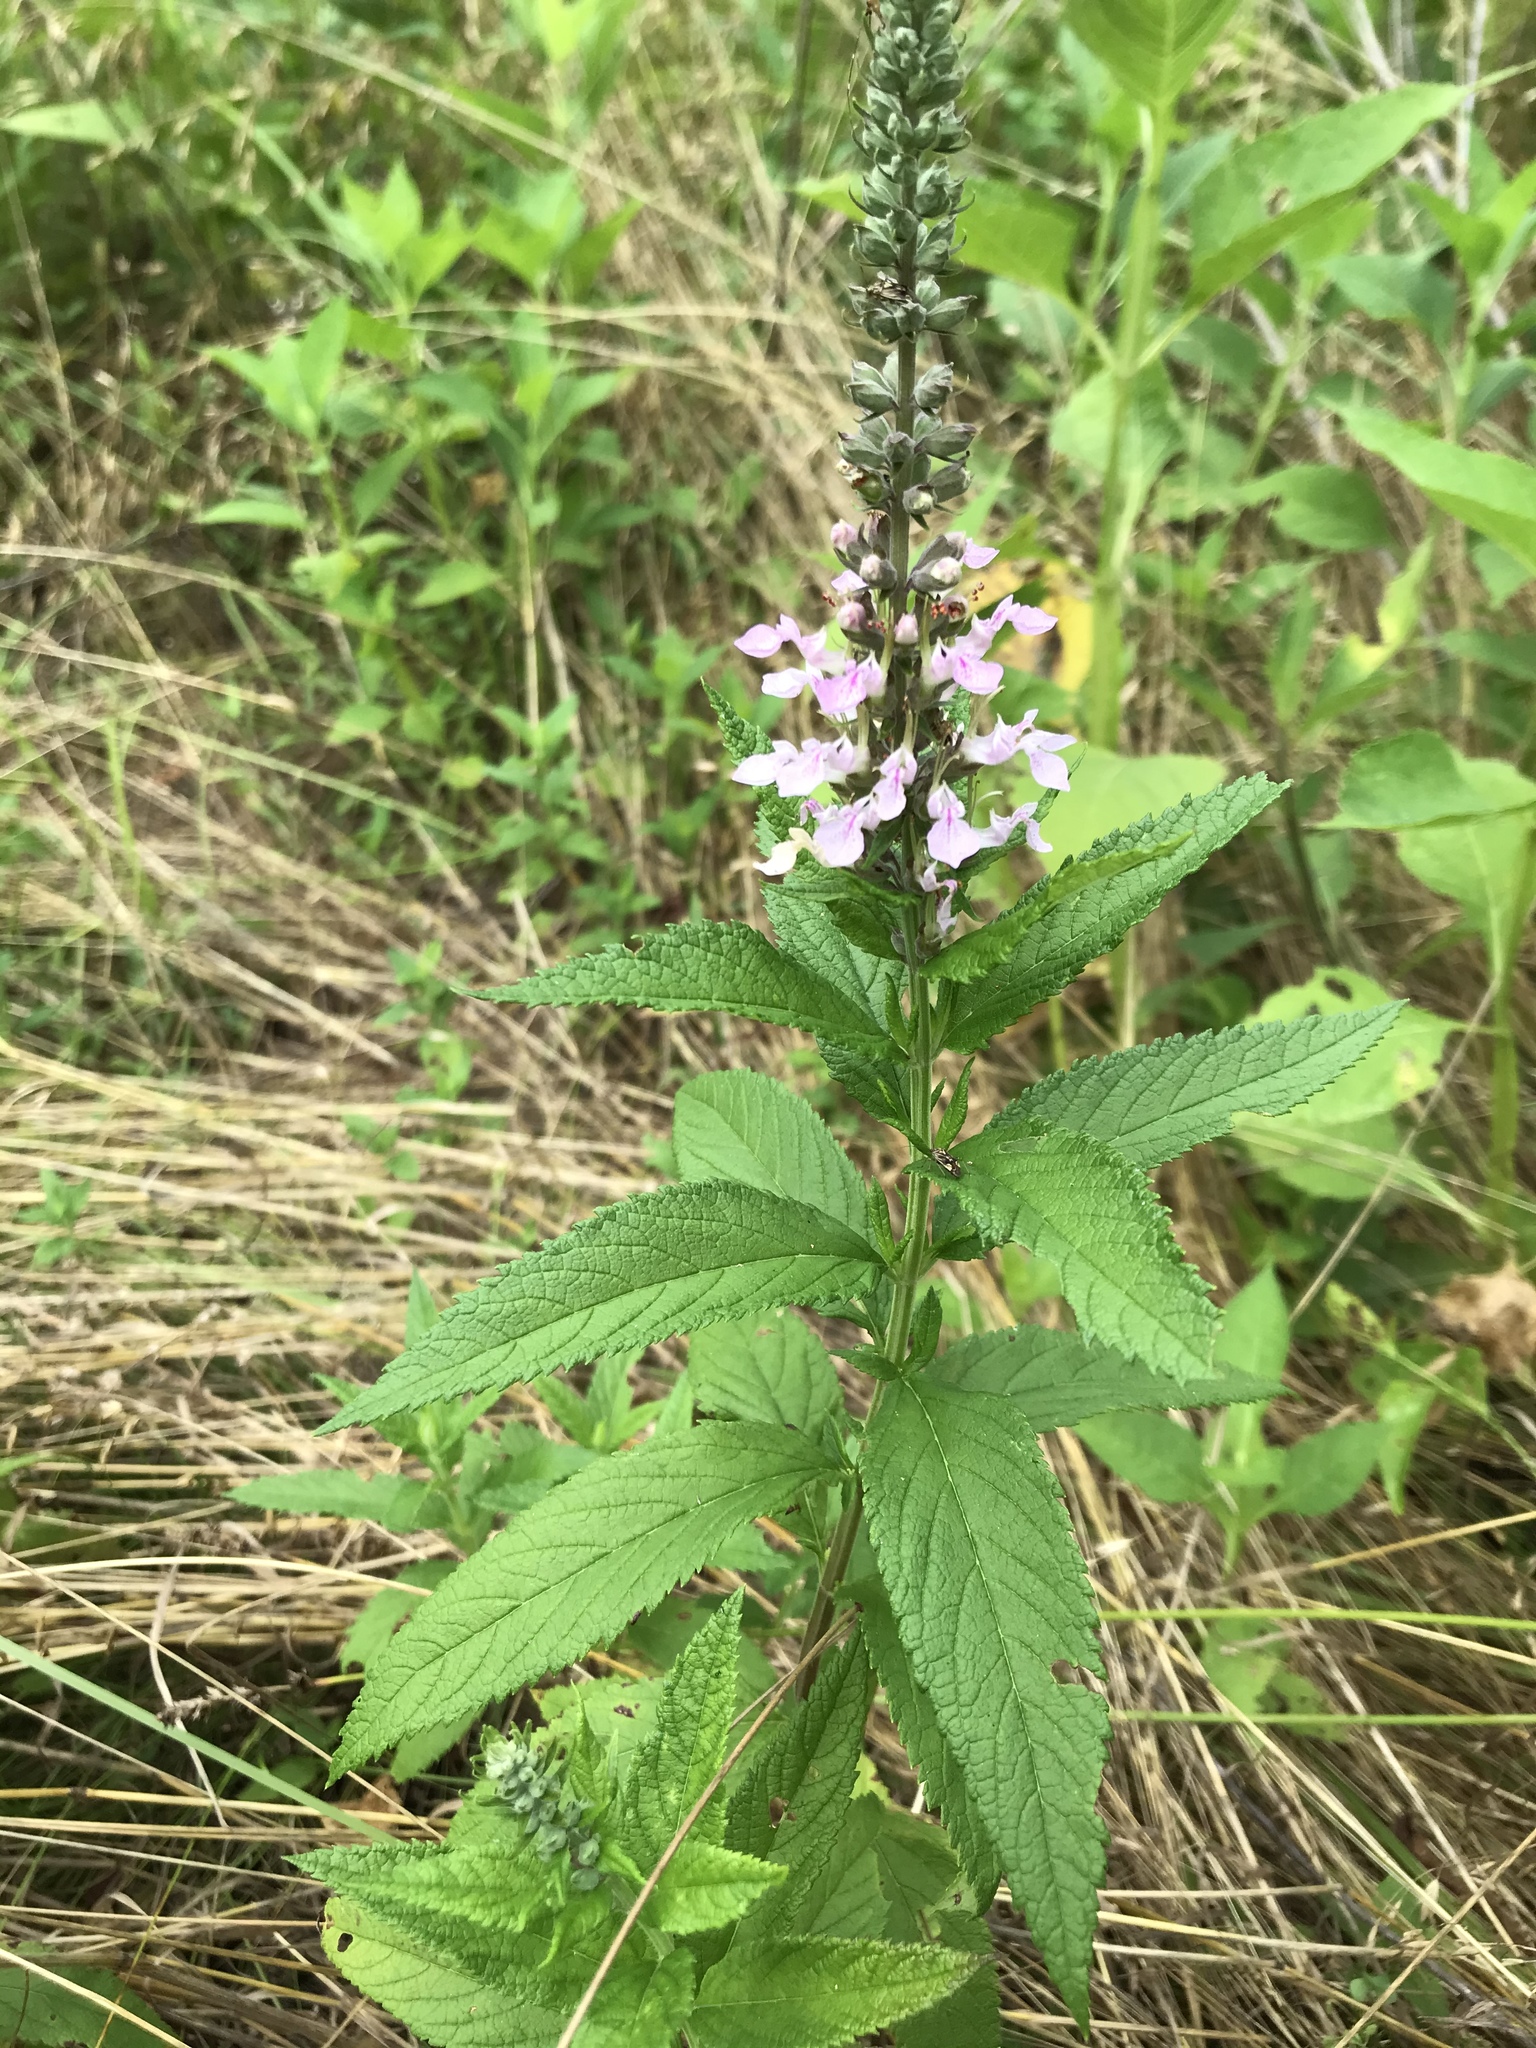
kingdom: Plantae
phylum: Tracheophyta
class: Magnoliopsida
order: Lamiales
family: Lamiaceae
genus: Teucrium
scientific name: Teucrium canadense
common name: American germander
